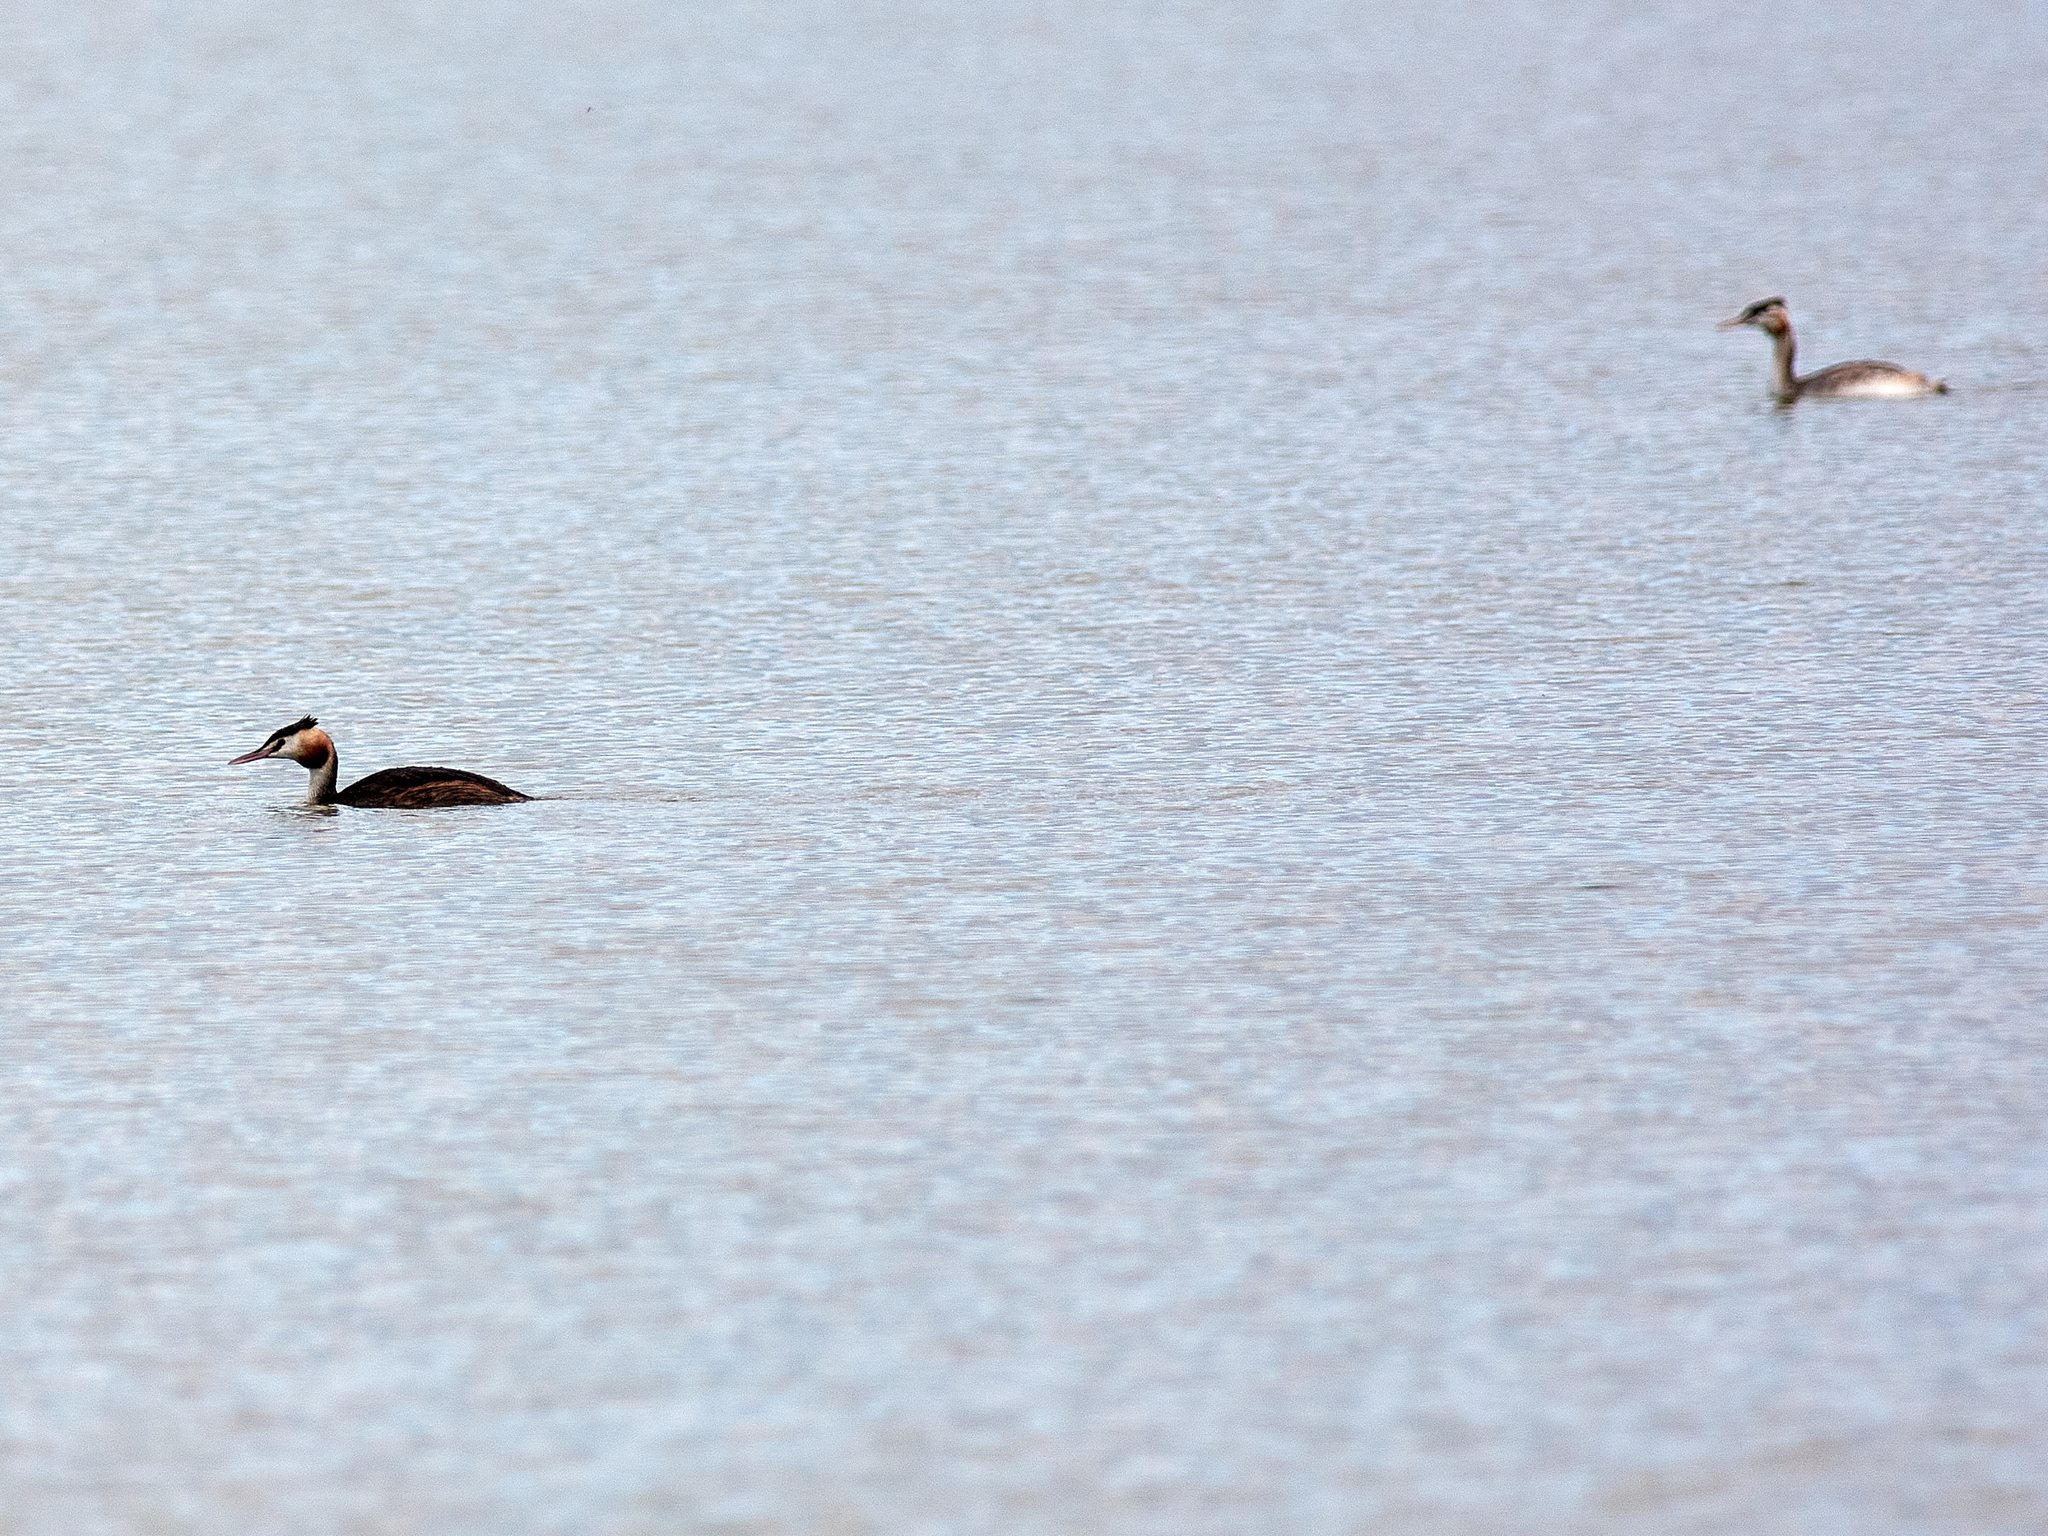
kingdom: Animalia
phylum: Chordata
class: Aves
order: Podicipediformes
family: Podicipedidae
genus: Podiceps
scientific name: Podiceps cristatus
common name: Great crested grebe
